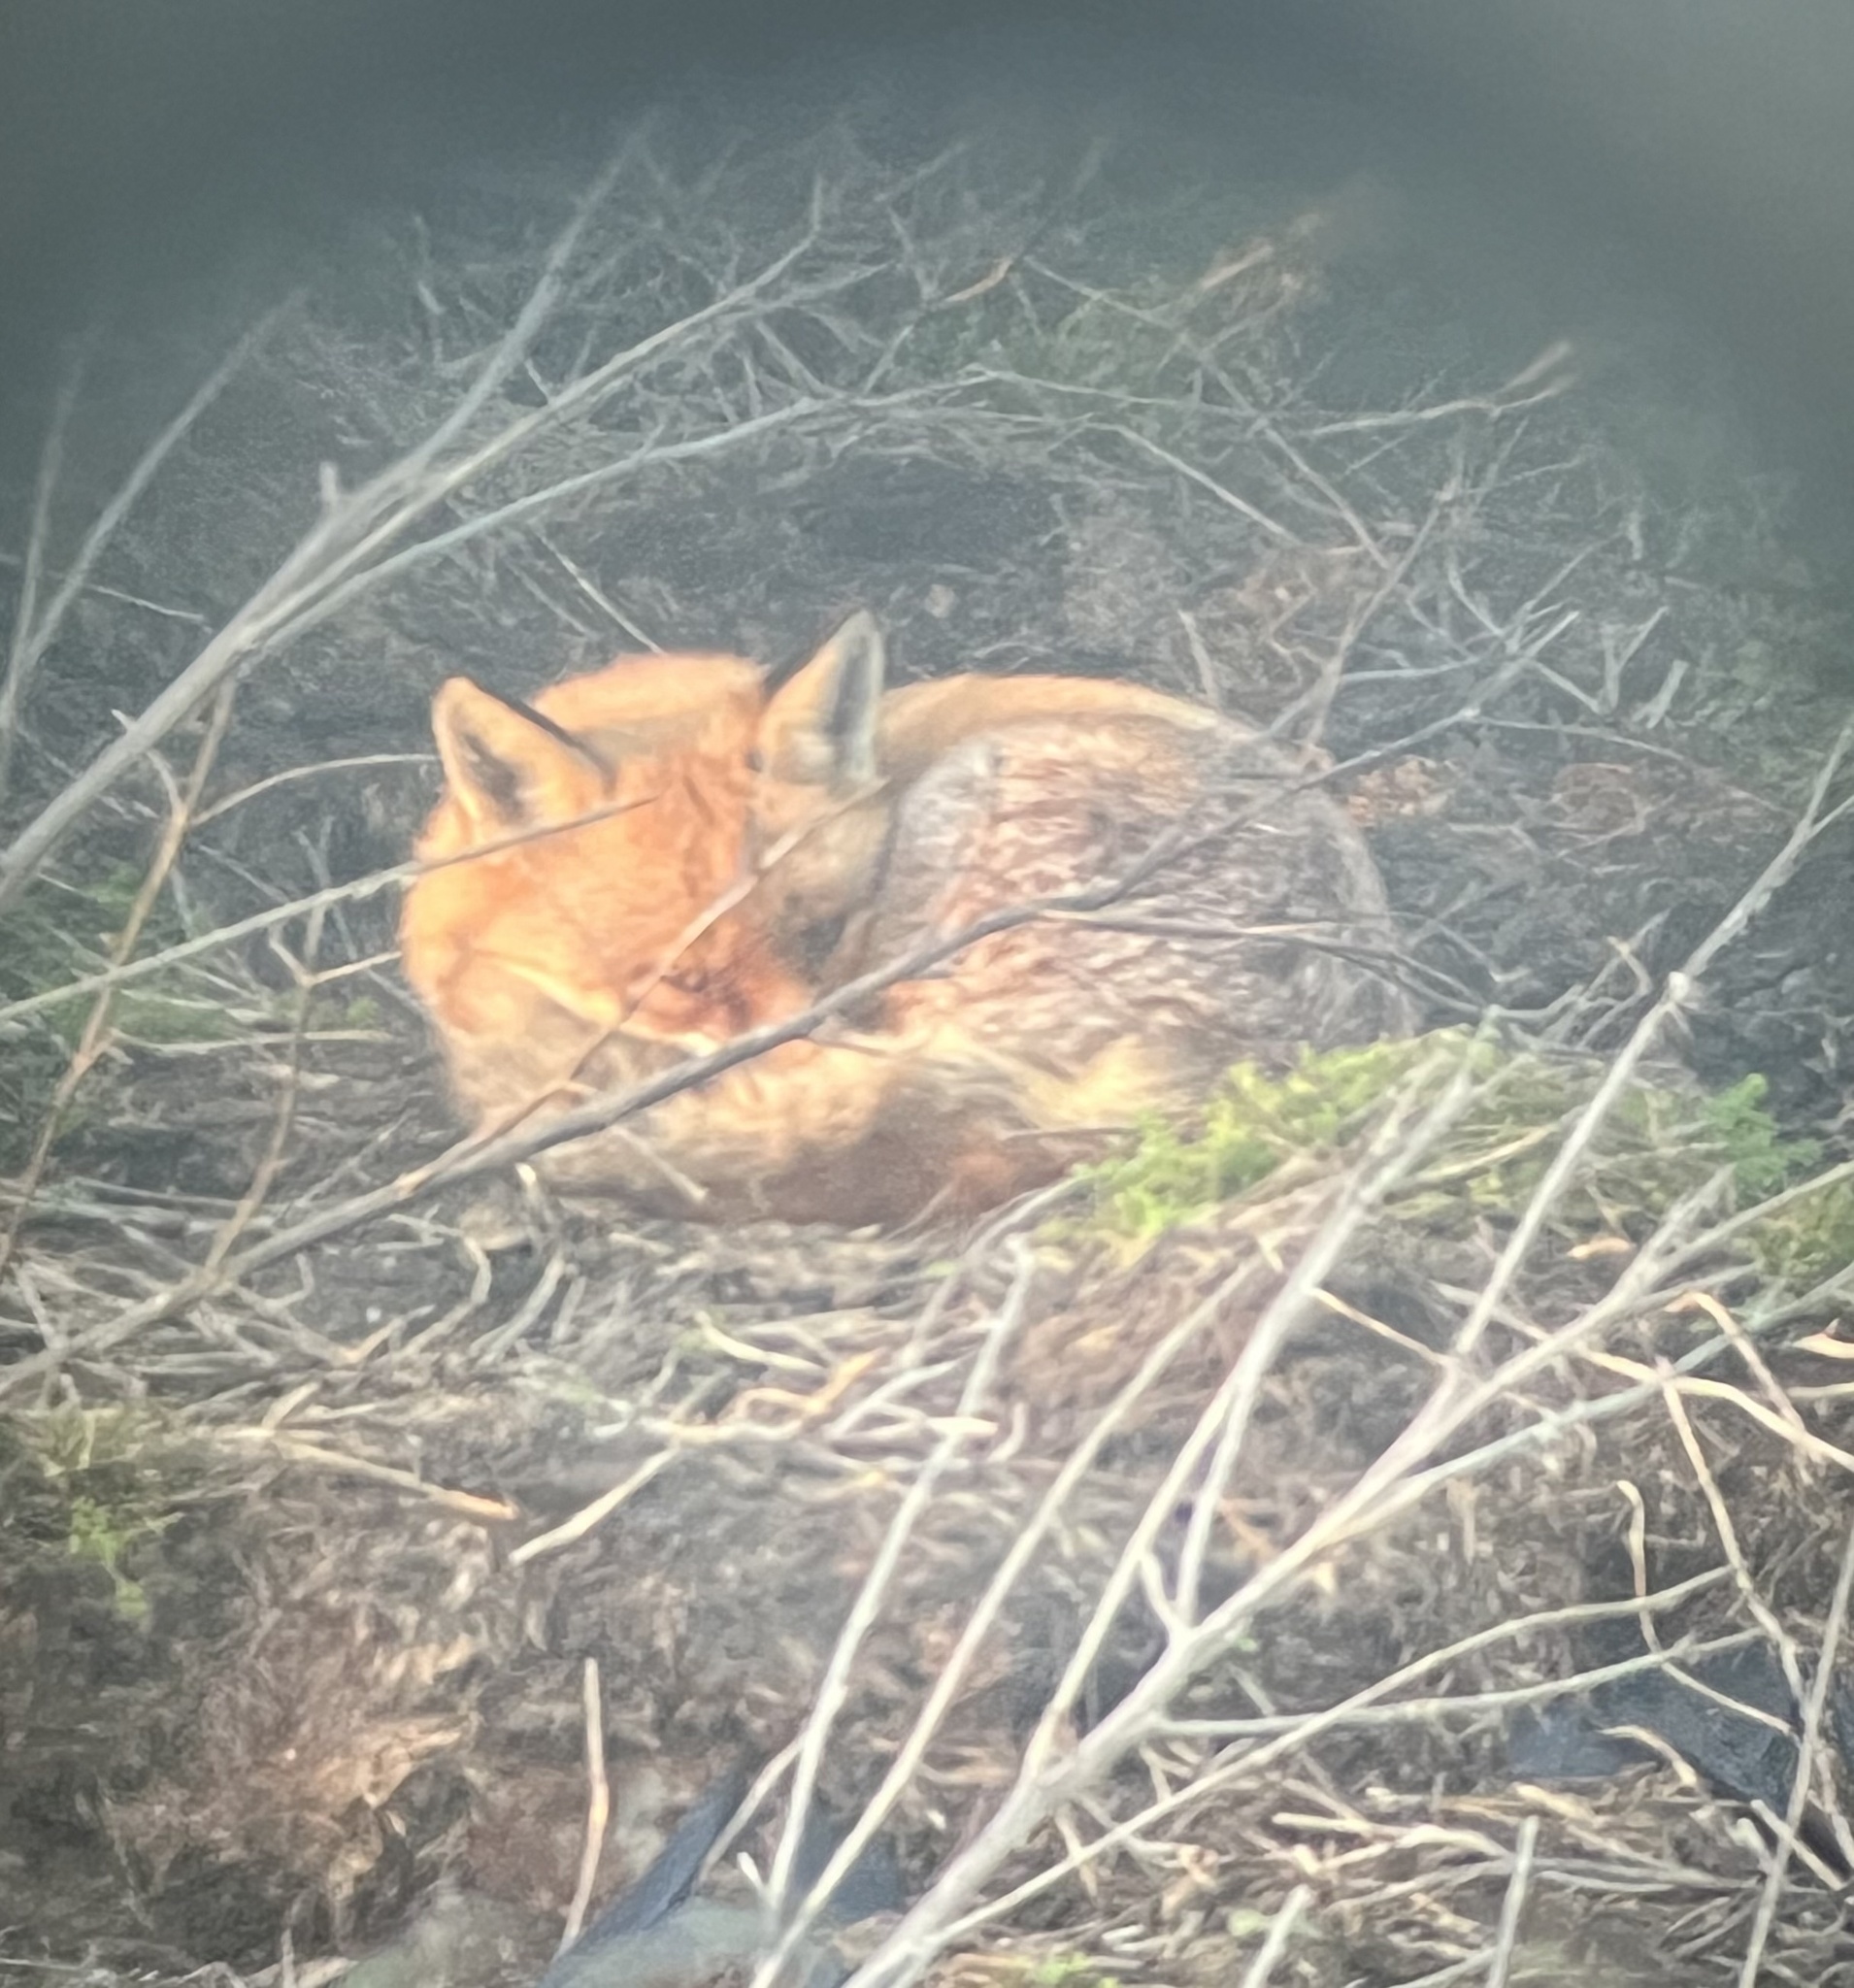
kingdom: Animalia
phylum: Chordata
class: Mammalia
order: Carnivora
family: Canidae
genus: Vulpes
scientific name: Vulpes vulpes
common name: Red fox
